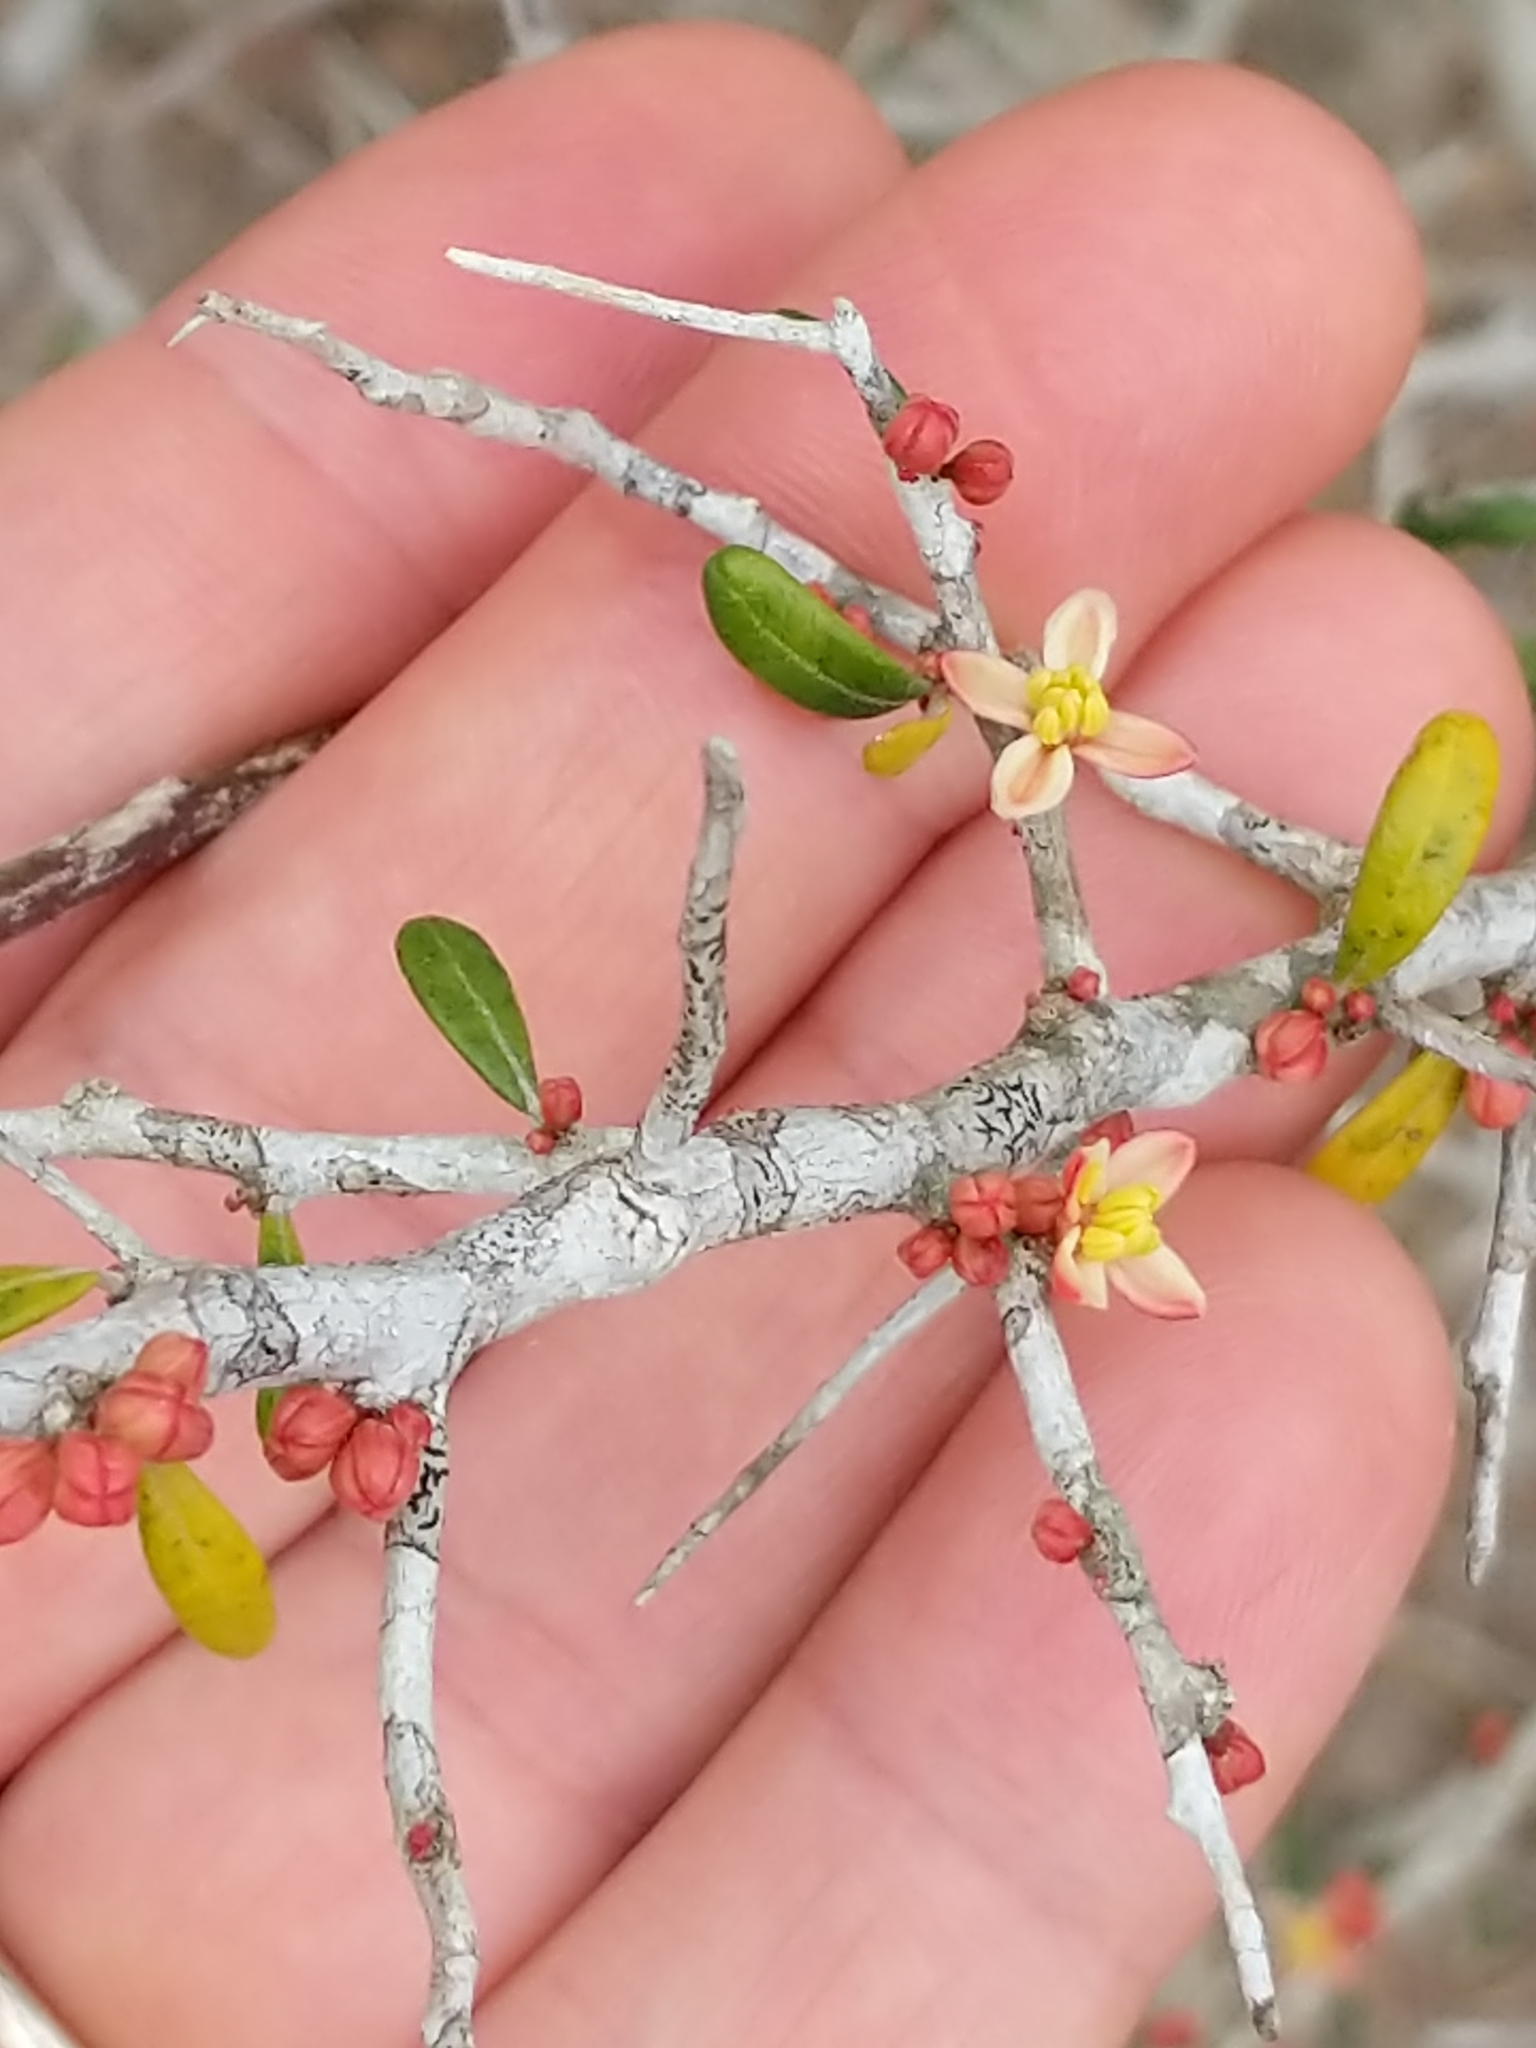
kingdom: Plantae
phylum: Tracheophyta
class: Magnoliopsida
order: Sapindales
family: Simaroubaceae
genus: Castela
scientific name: Castela erecta
